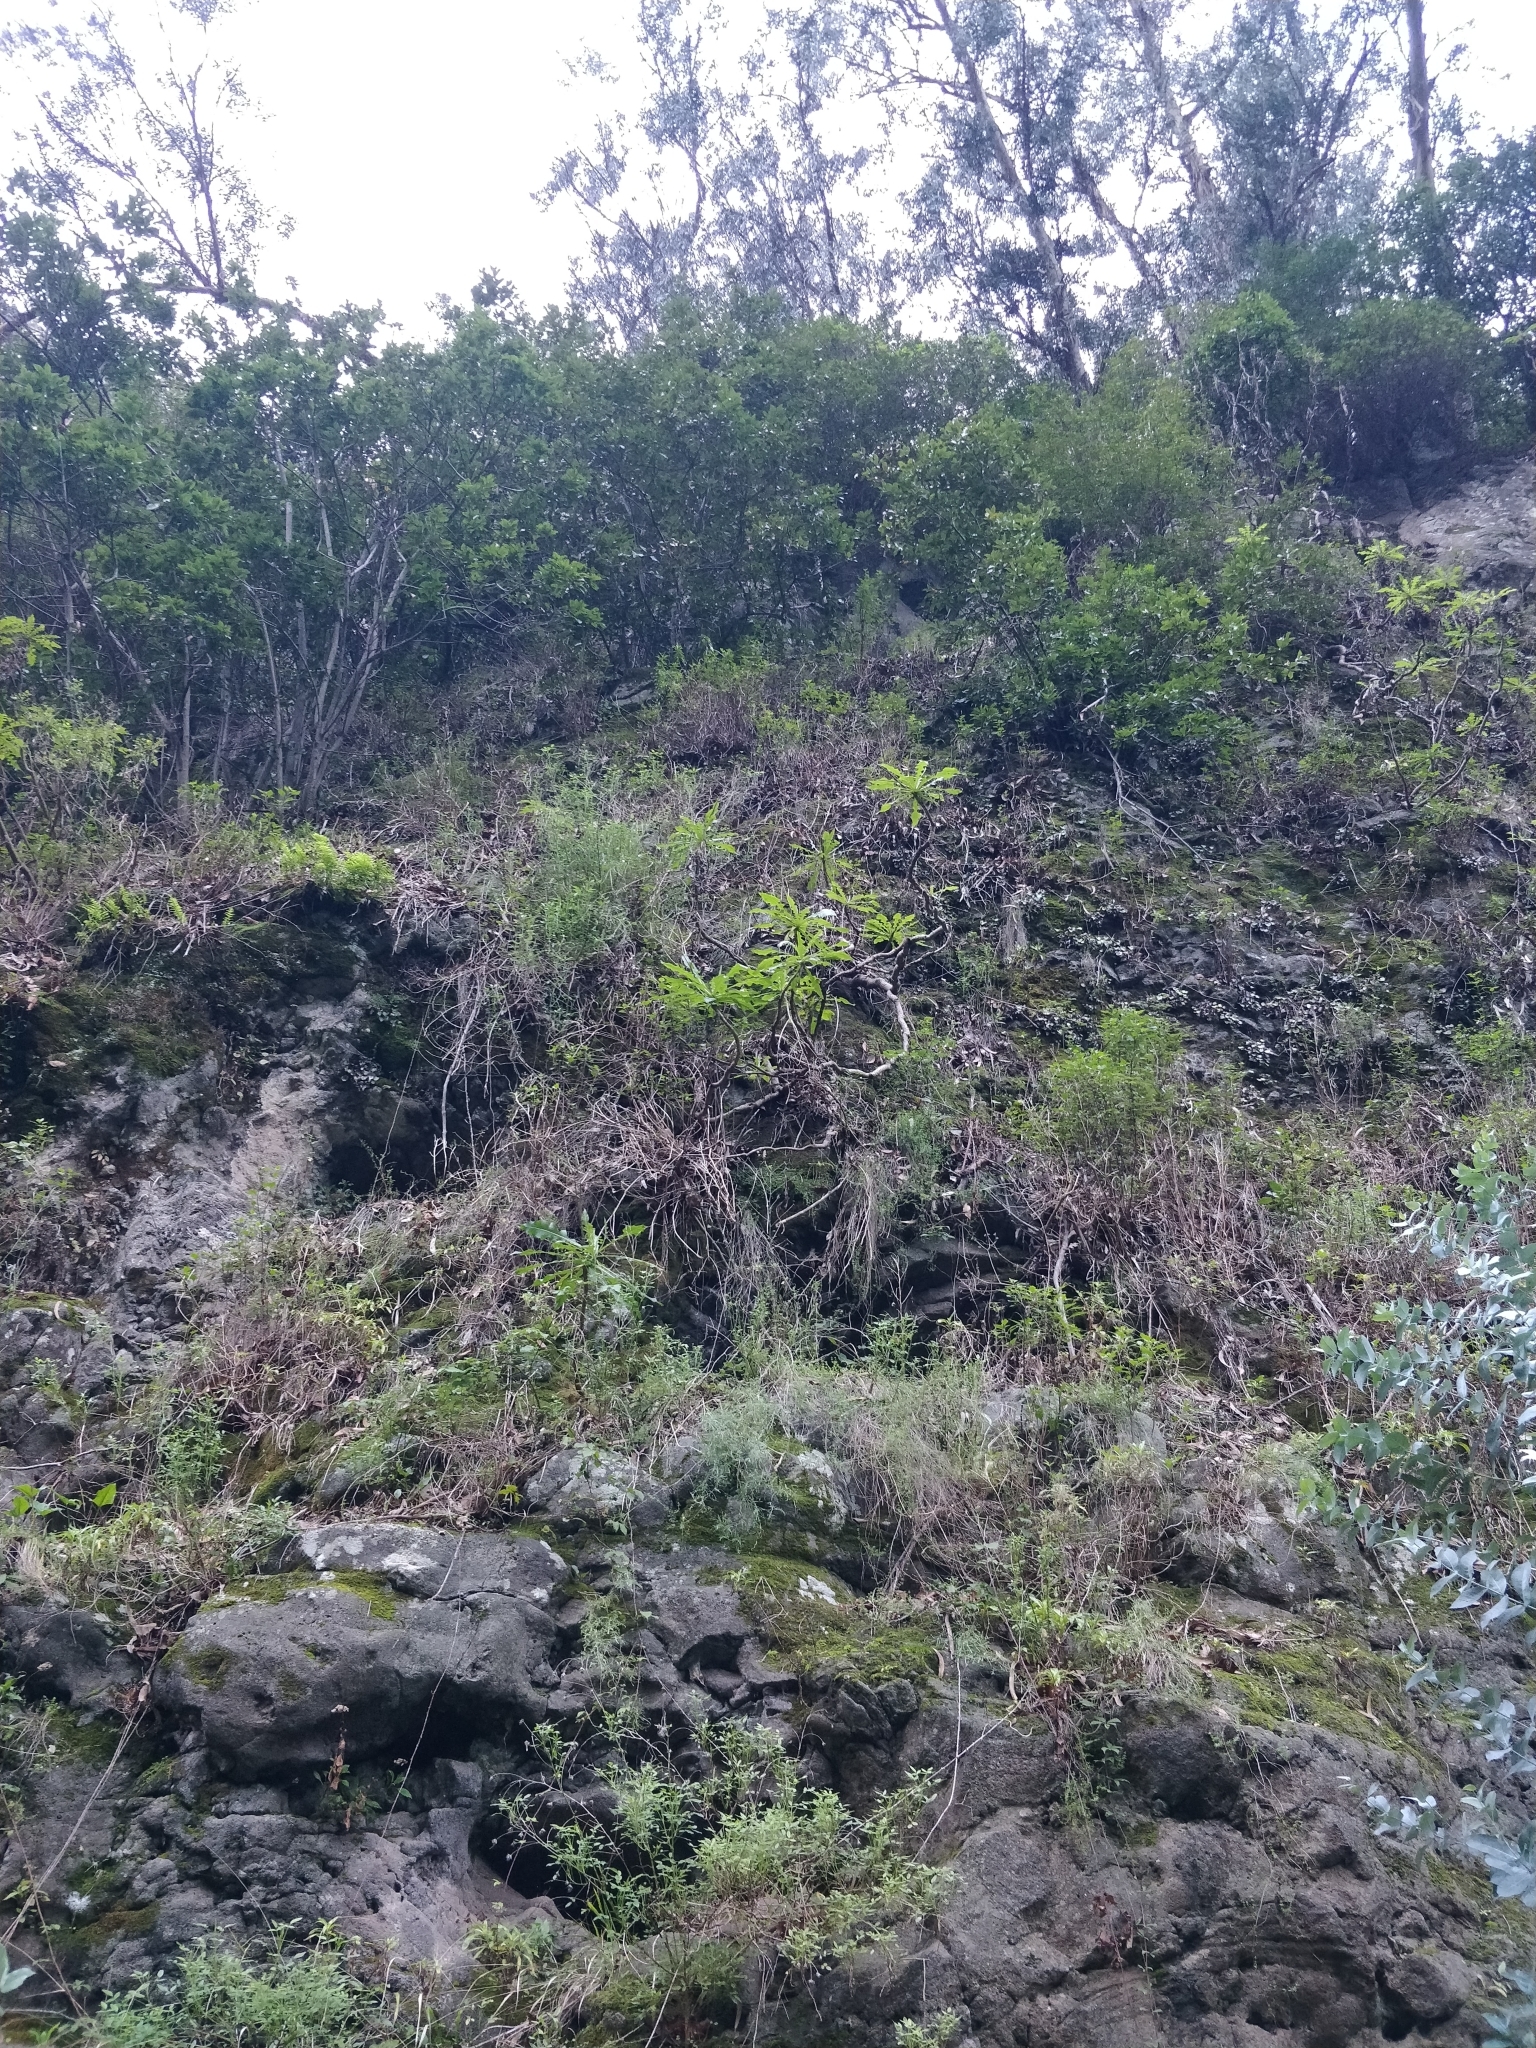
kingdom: Plantae
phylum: Tracheophyta
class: Magnoliopsida
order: Asterales
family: Asteraceae
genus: Sonchus
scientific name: Sonchus fruticosus
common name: Shrubby sow-thistle
